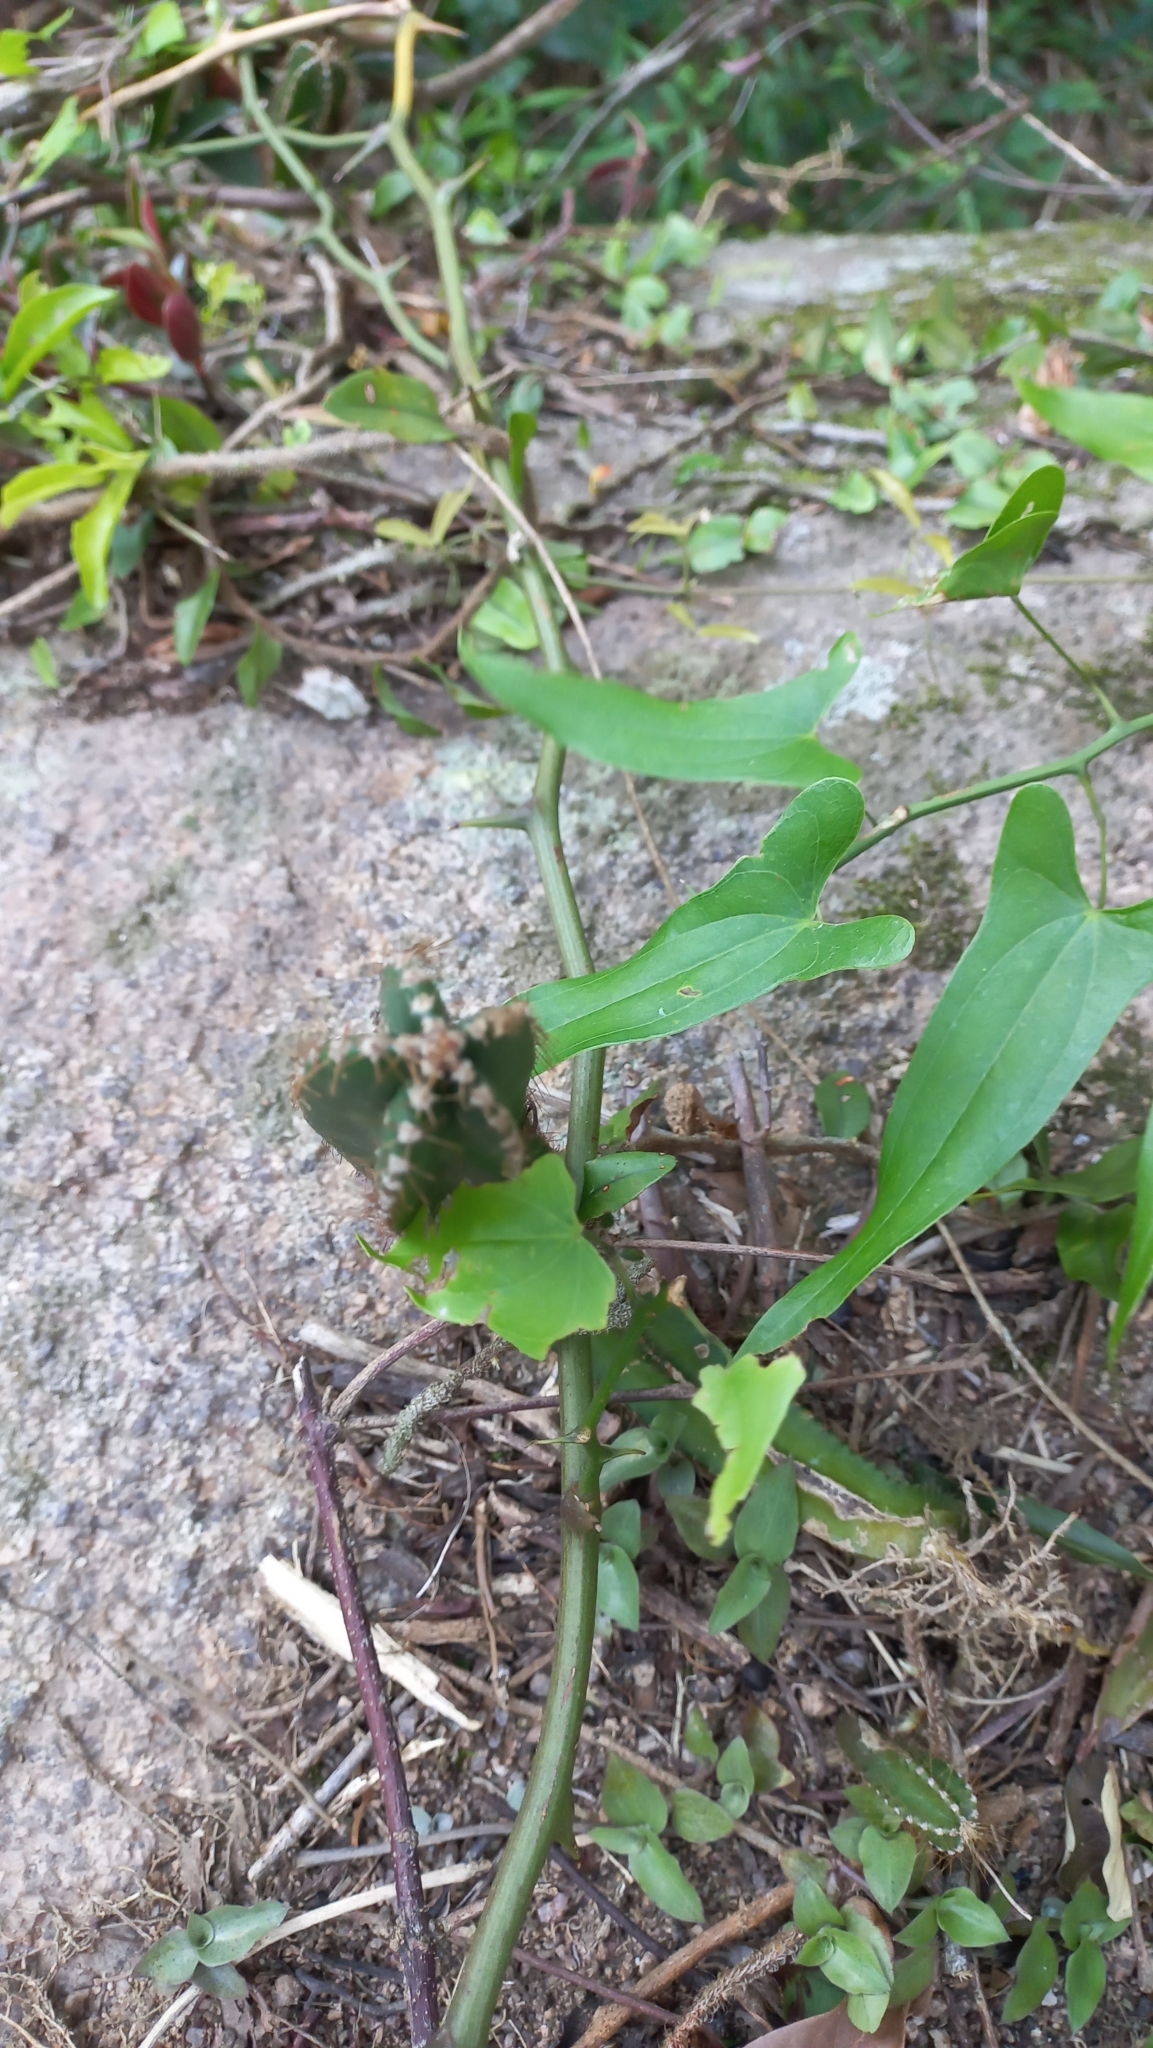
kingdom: Plantae
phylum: Tracheophyta
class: Magnoliopsida
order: Caryophyllales
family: Cactaceae
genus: Cereus
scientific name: Cereus hildmannianus
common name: Hedge cactus
